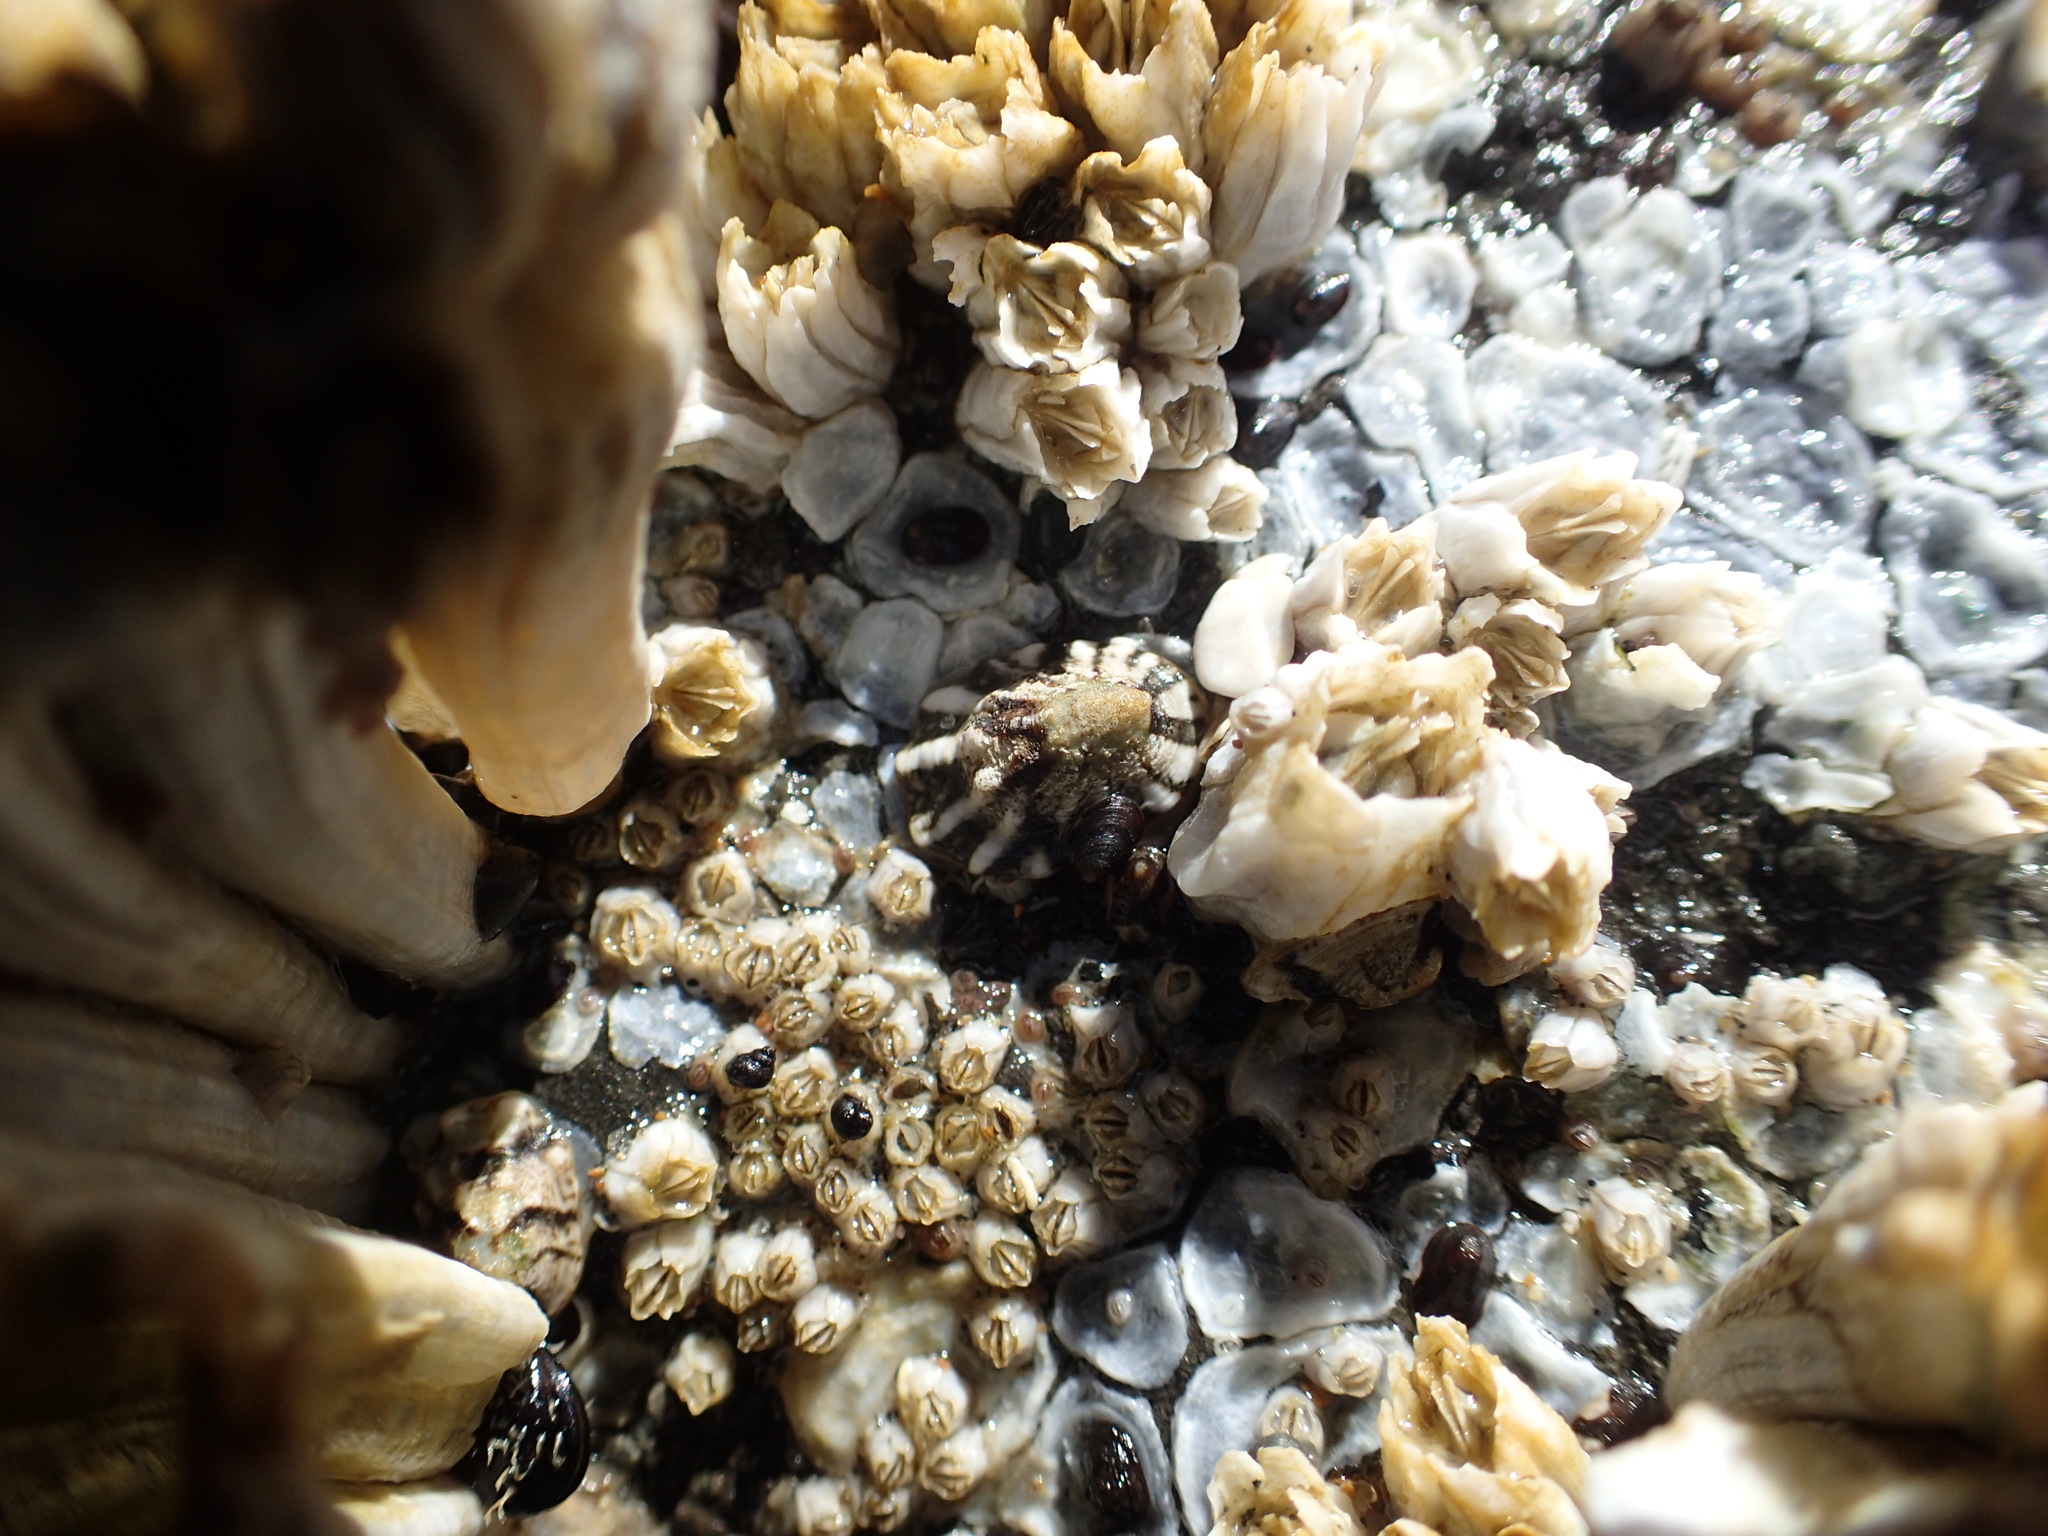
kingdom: Animalia
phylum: Mollusca
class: Gastropoda
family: Lottiidae
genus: Lottia
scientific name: Lottia digitalis
